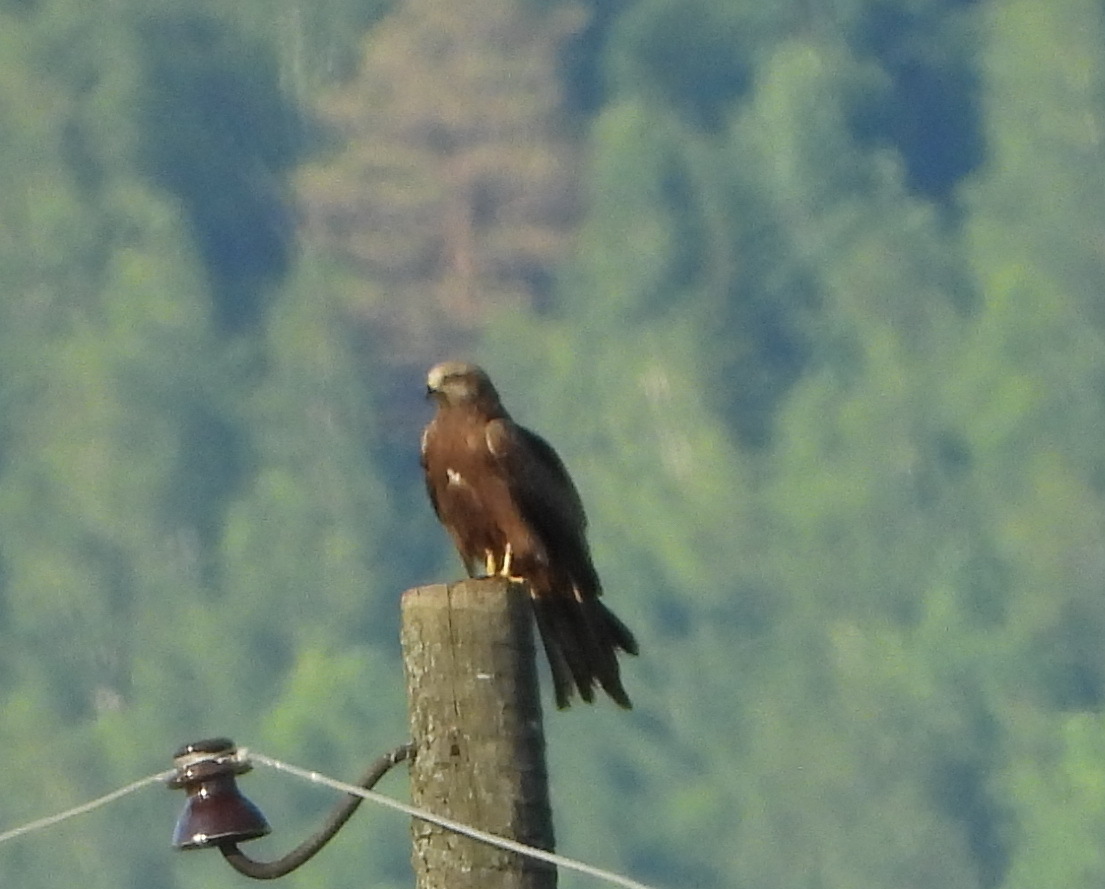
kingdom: Animalia
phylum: Chordata
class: Aves
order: Accipitriformes
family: Accipitridae
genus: Milvus
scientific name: Milvus migrans
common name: Black kite
